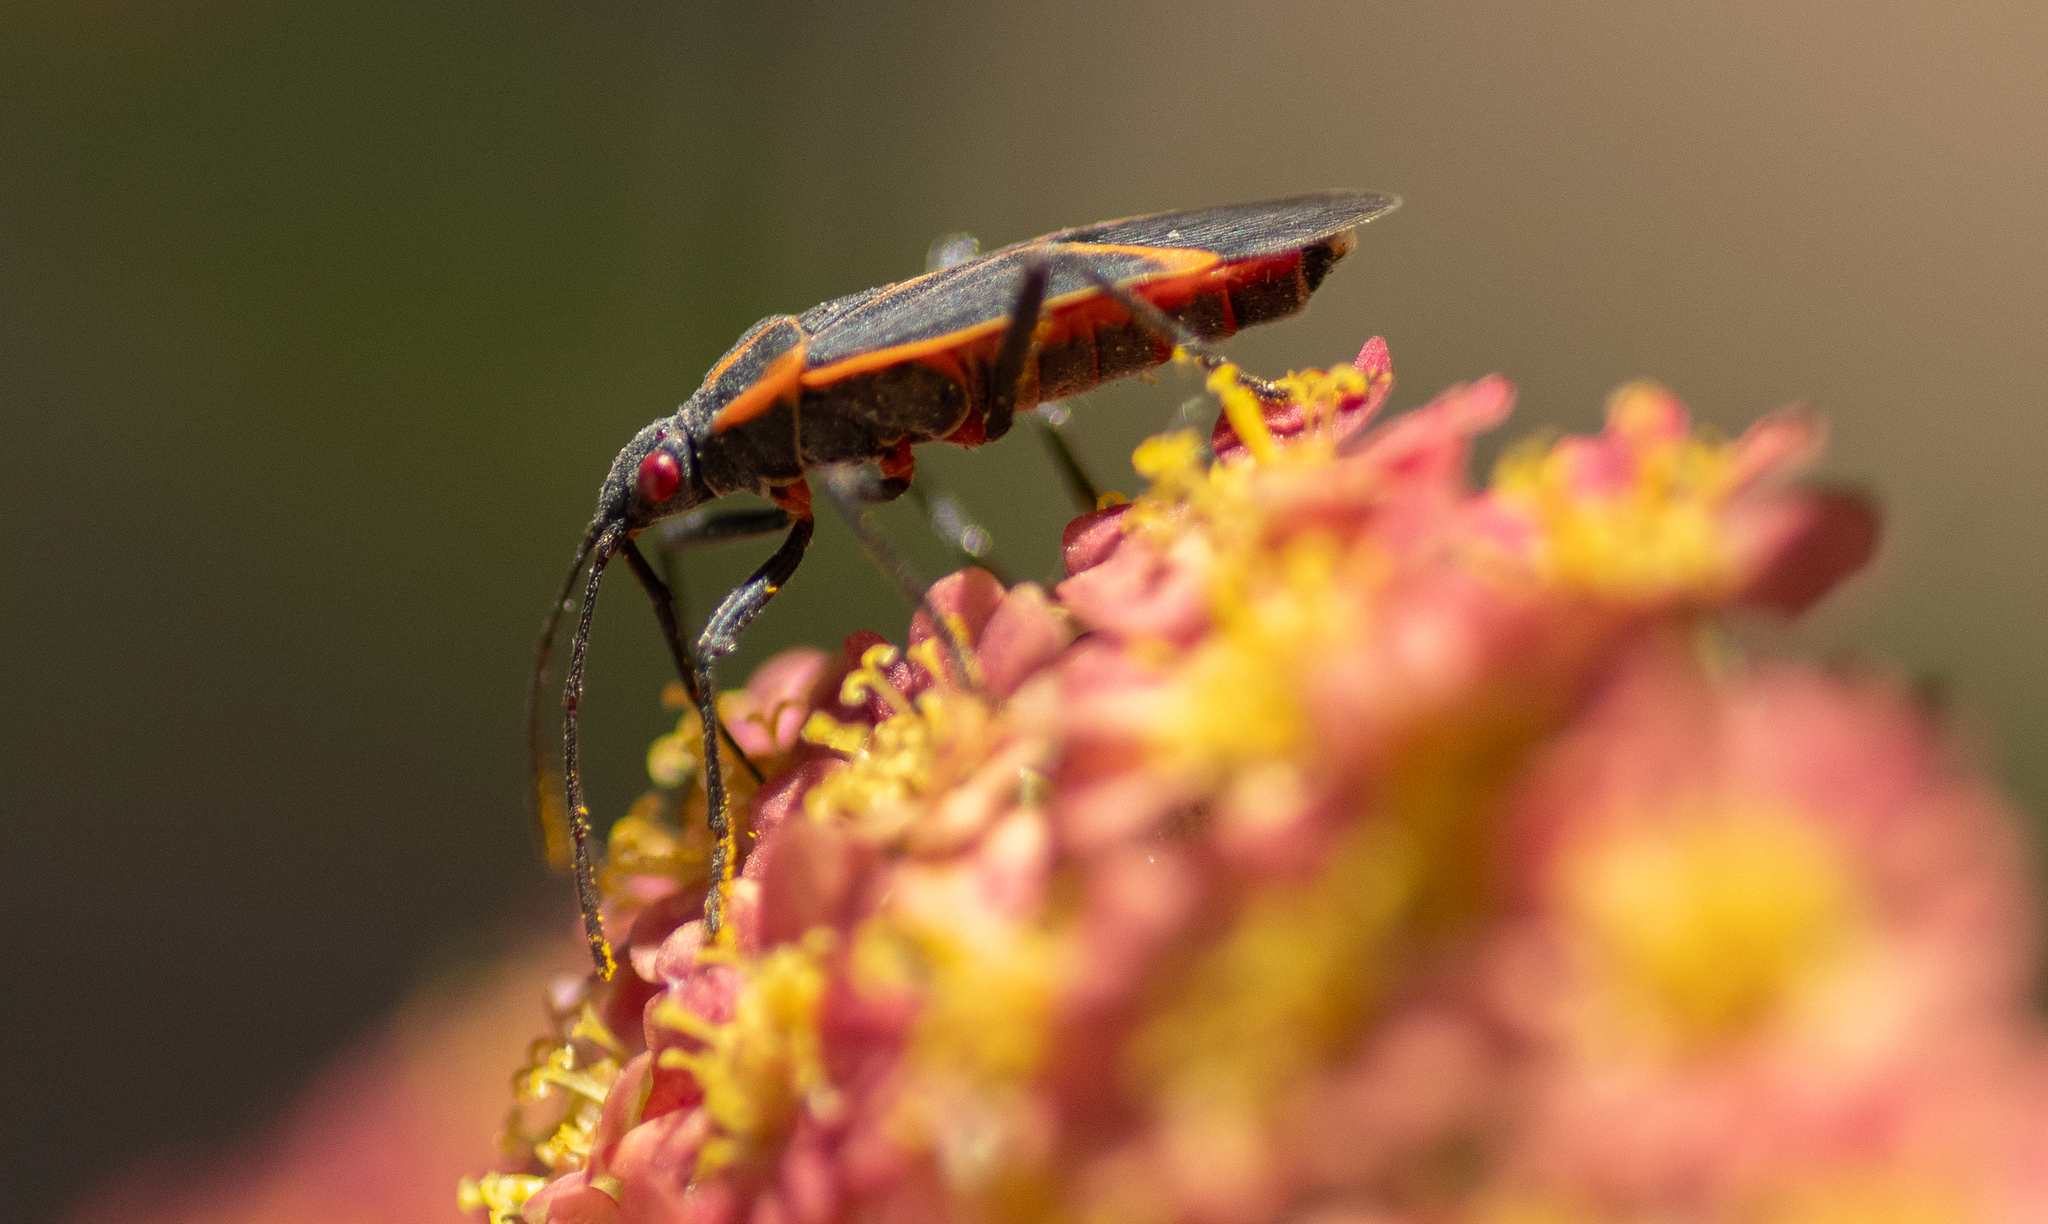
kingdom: Animalia
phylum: Arthropoda
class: Insecta
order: Hemiptera
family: Rhopalidae
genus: Boisea
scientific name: Boisea trivittata
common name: Boxelder bug
